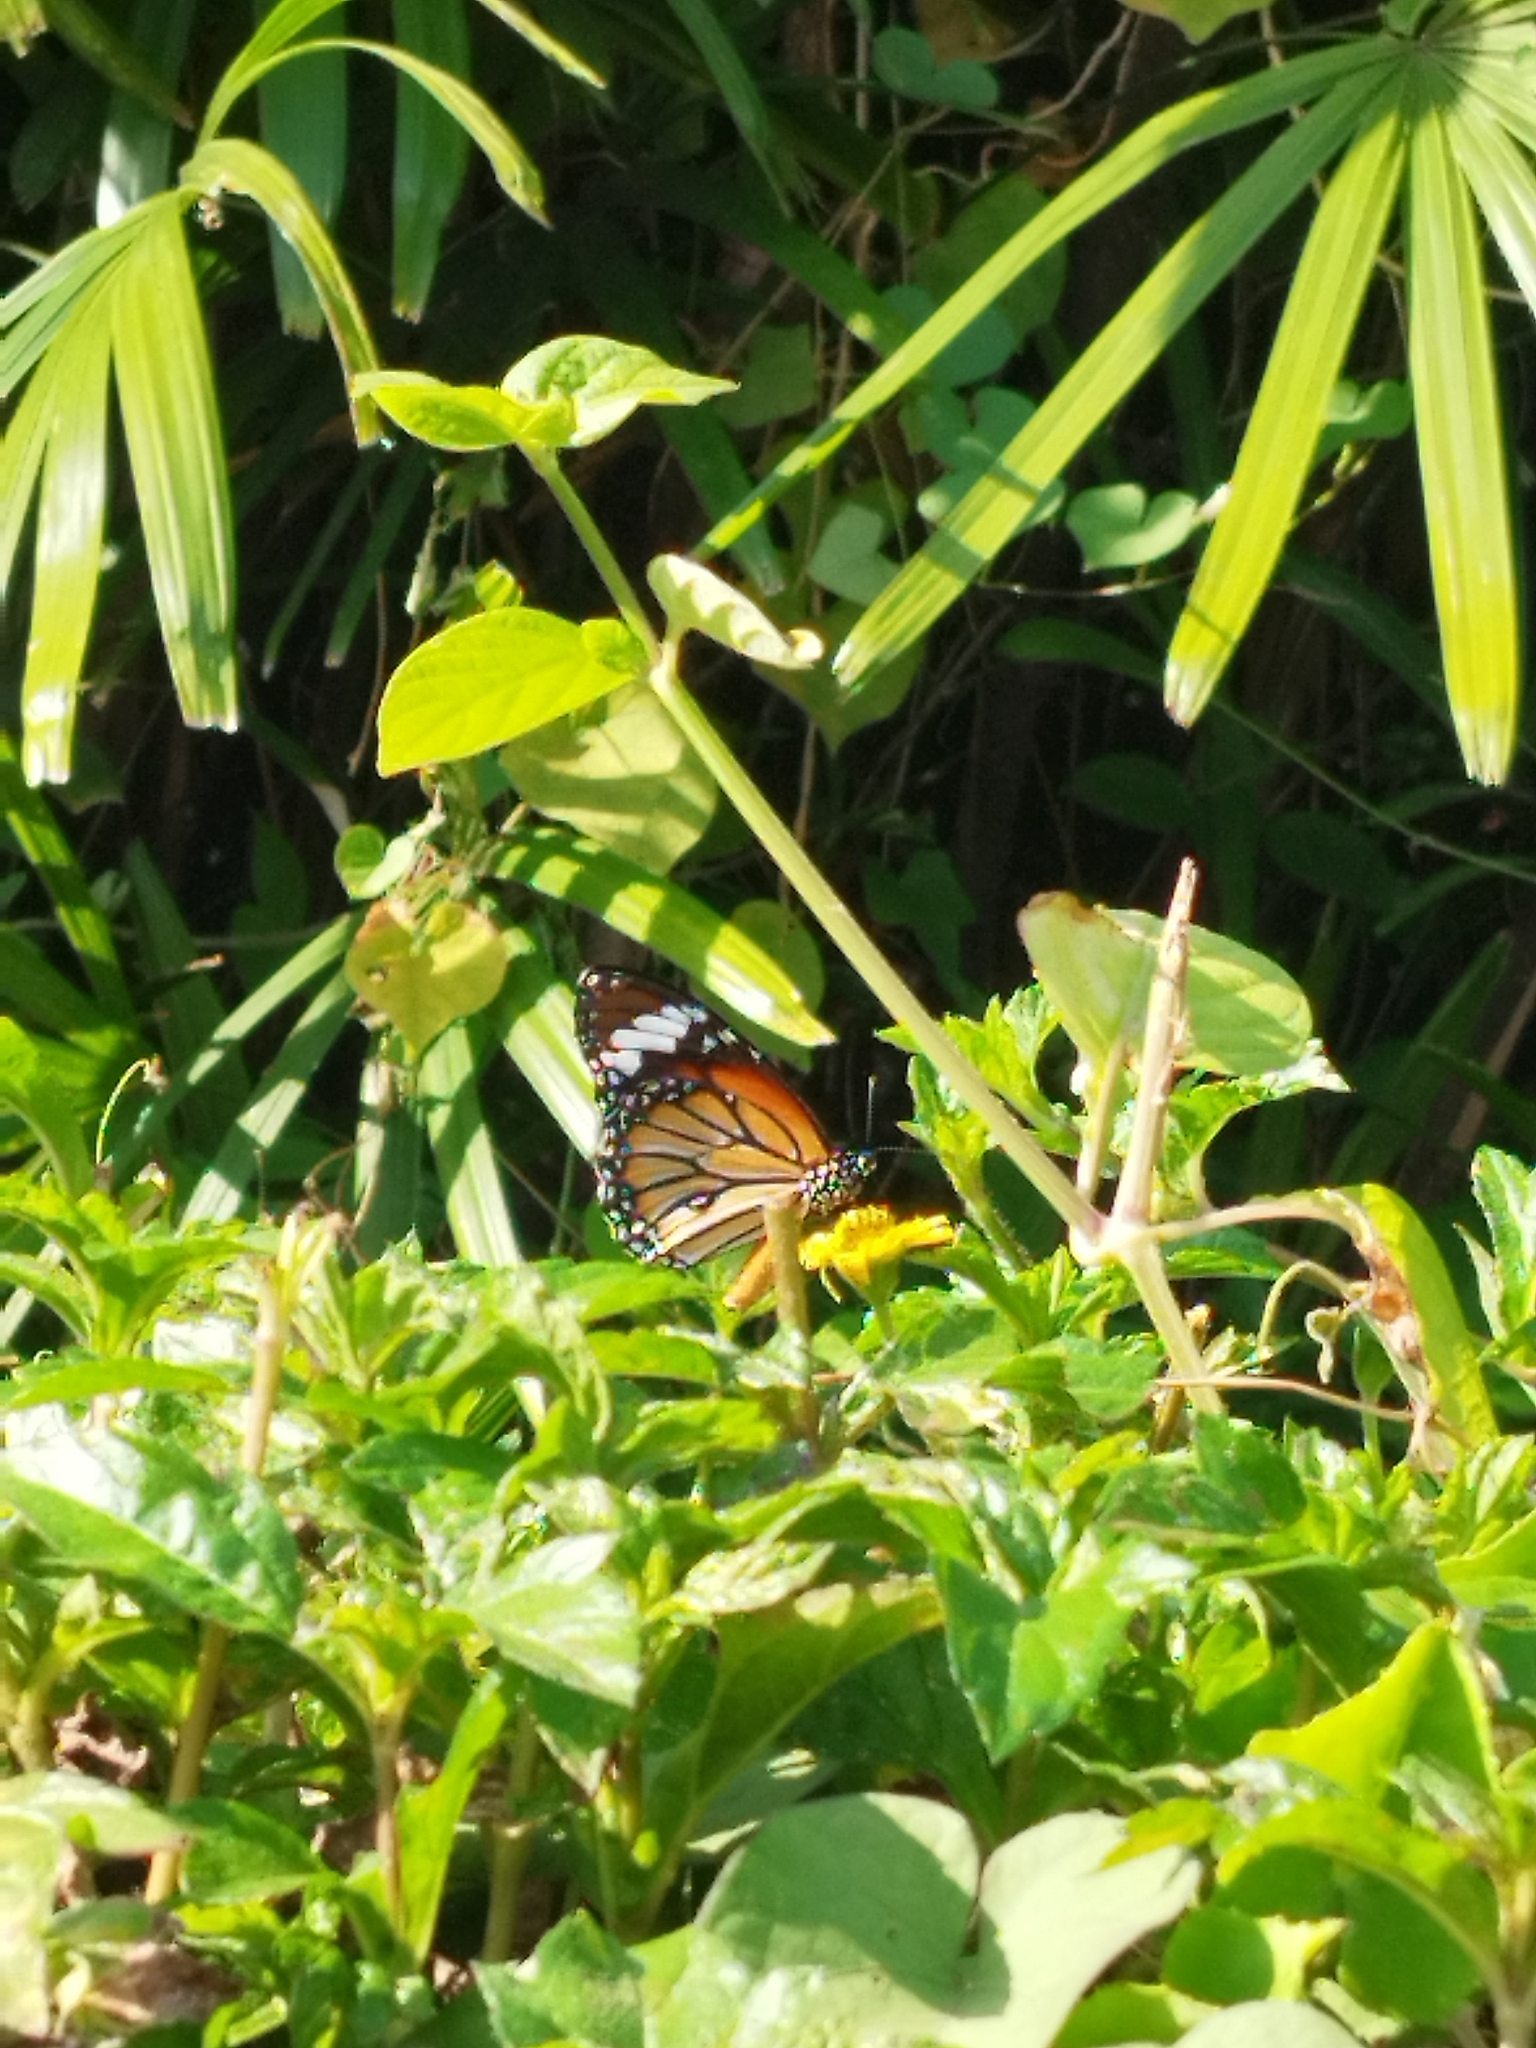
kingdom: Animalia
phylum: Arthropoda
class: Insecta
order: Lepidoptera
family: Nymphalidae
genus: Danaus
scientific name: Danaus genutia
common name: Common tiger butterfly
